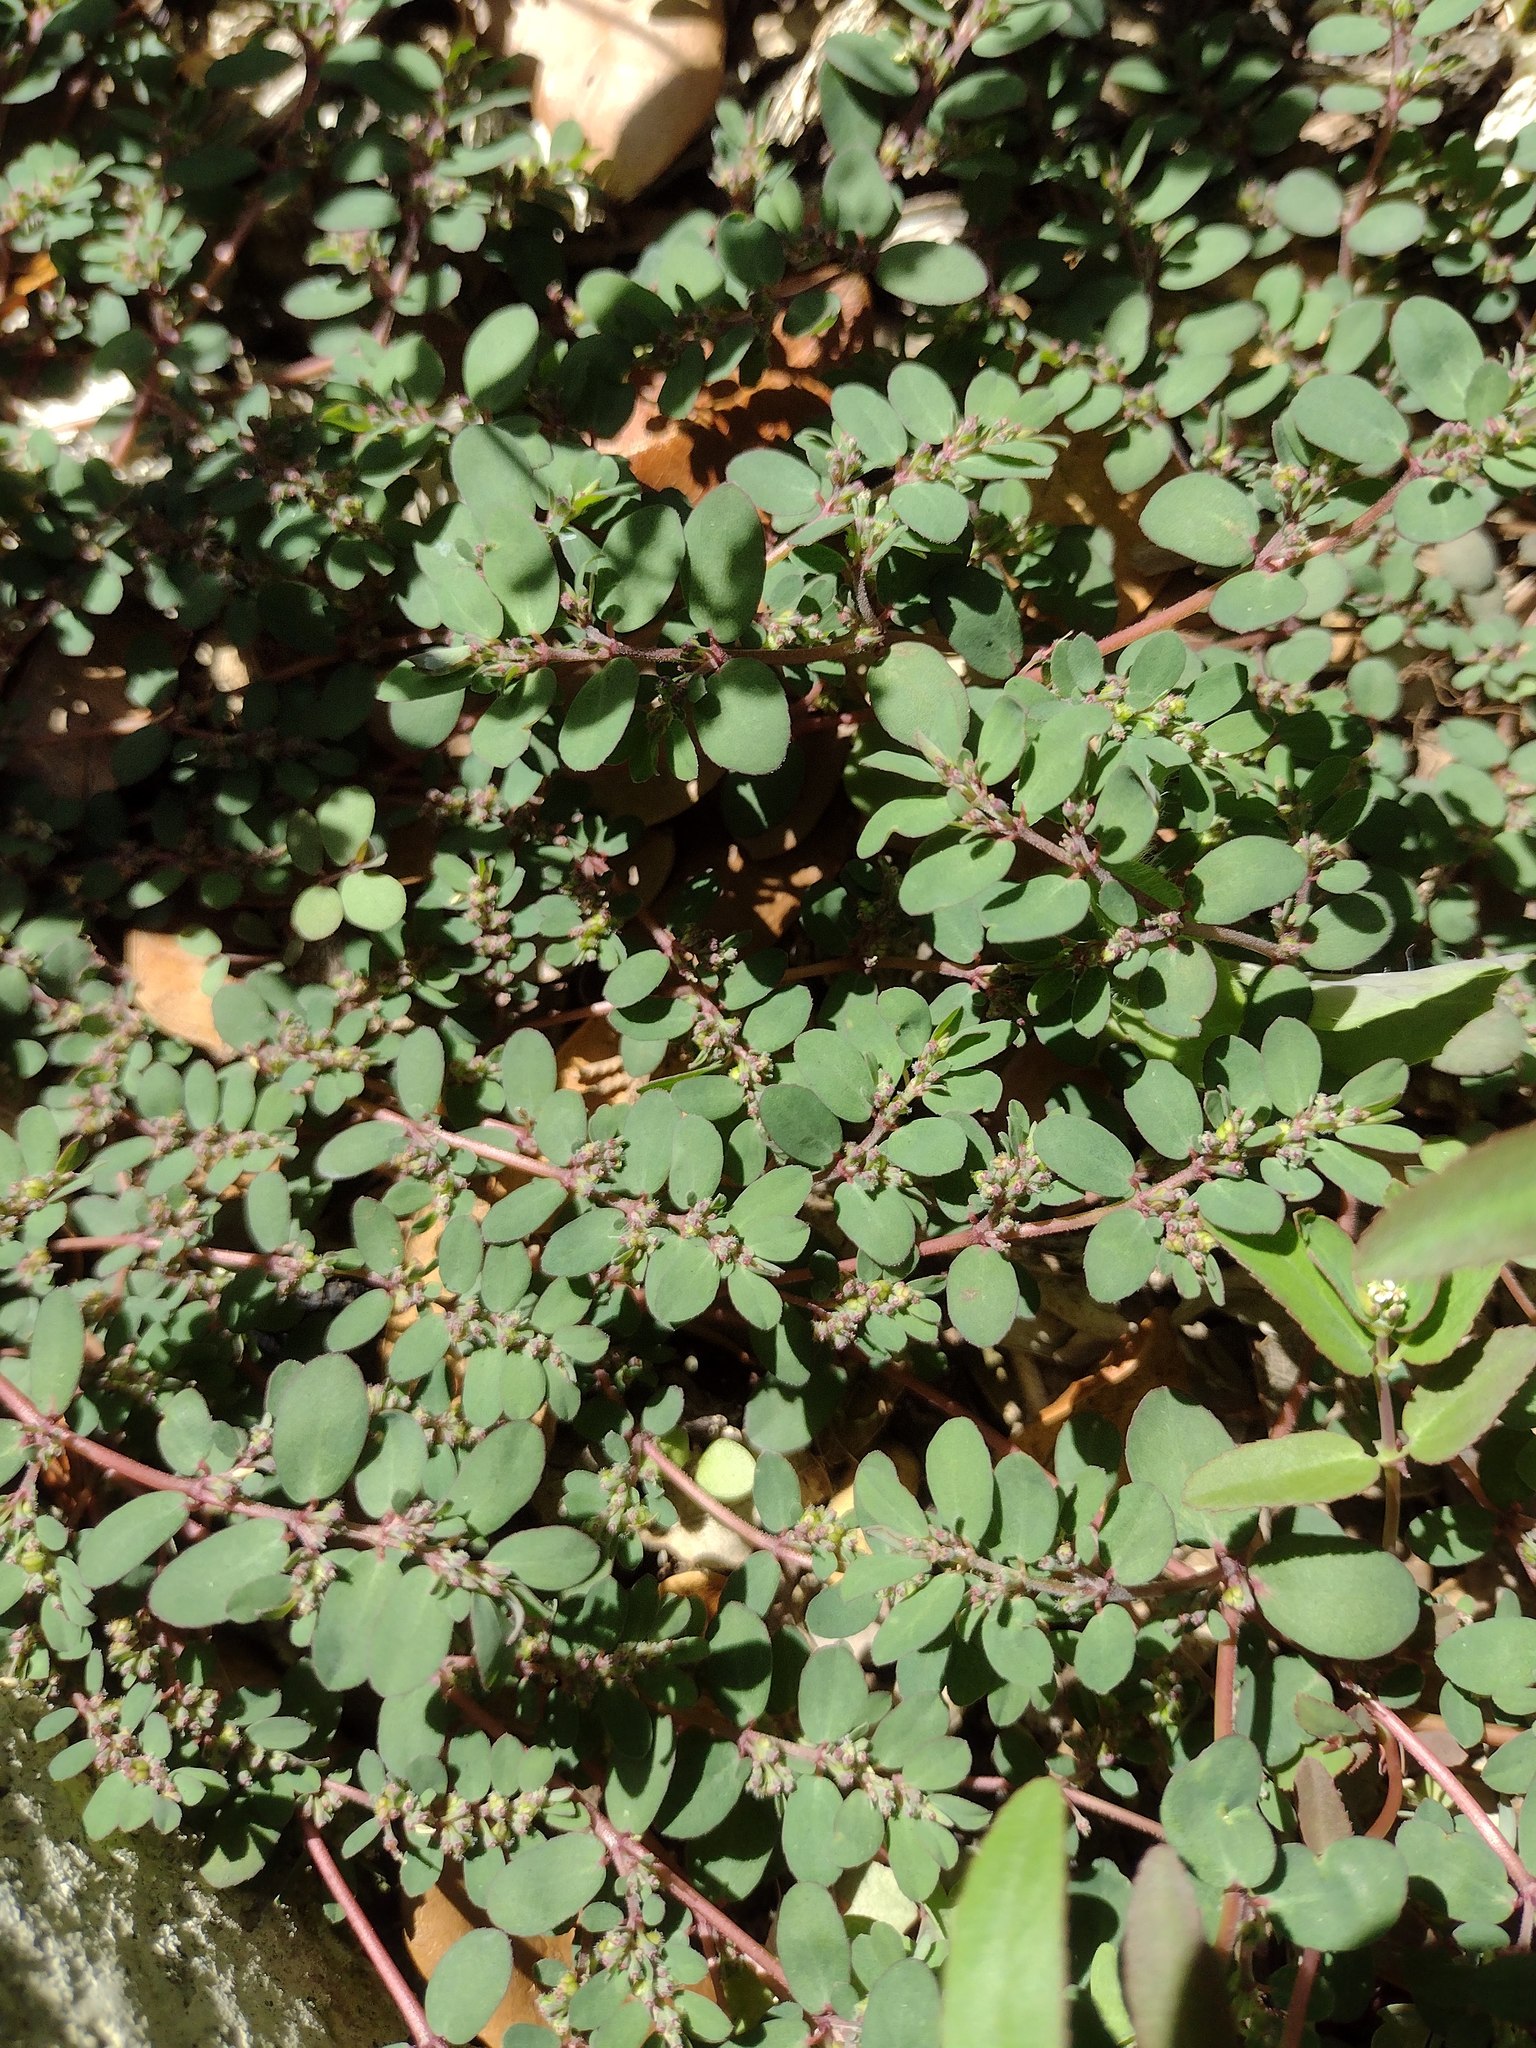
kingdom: Plantae
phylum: Tracheophyta
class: Magnoliopsida
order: Malpighiales
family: Euphorbiaceae
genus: Euphorbia
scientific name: Euphorbia prostrata
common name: Prostrate sandmat
